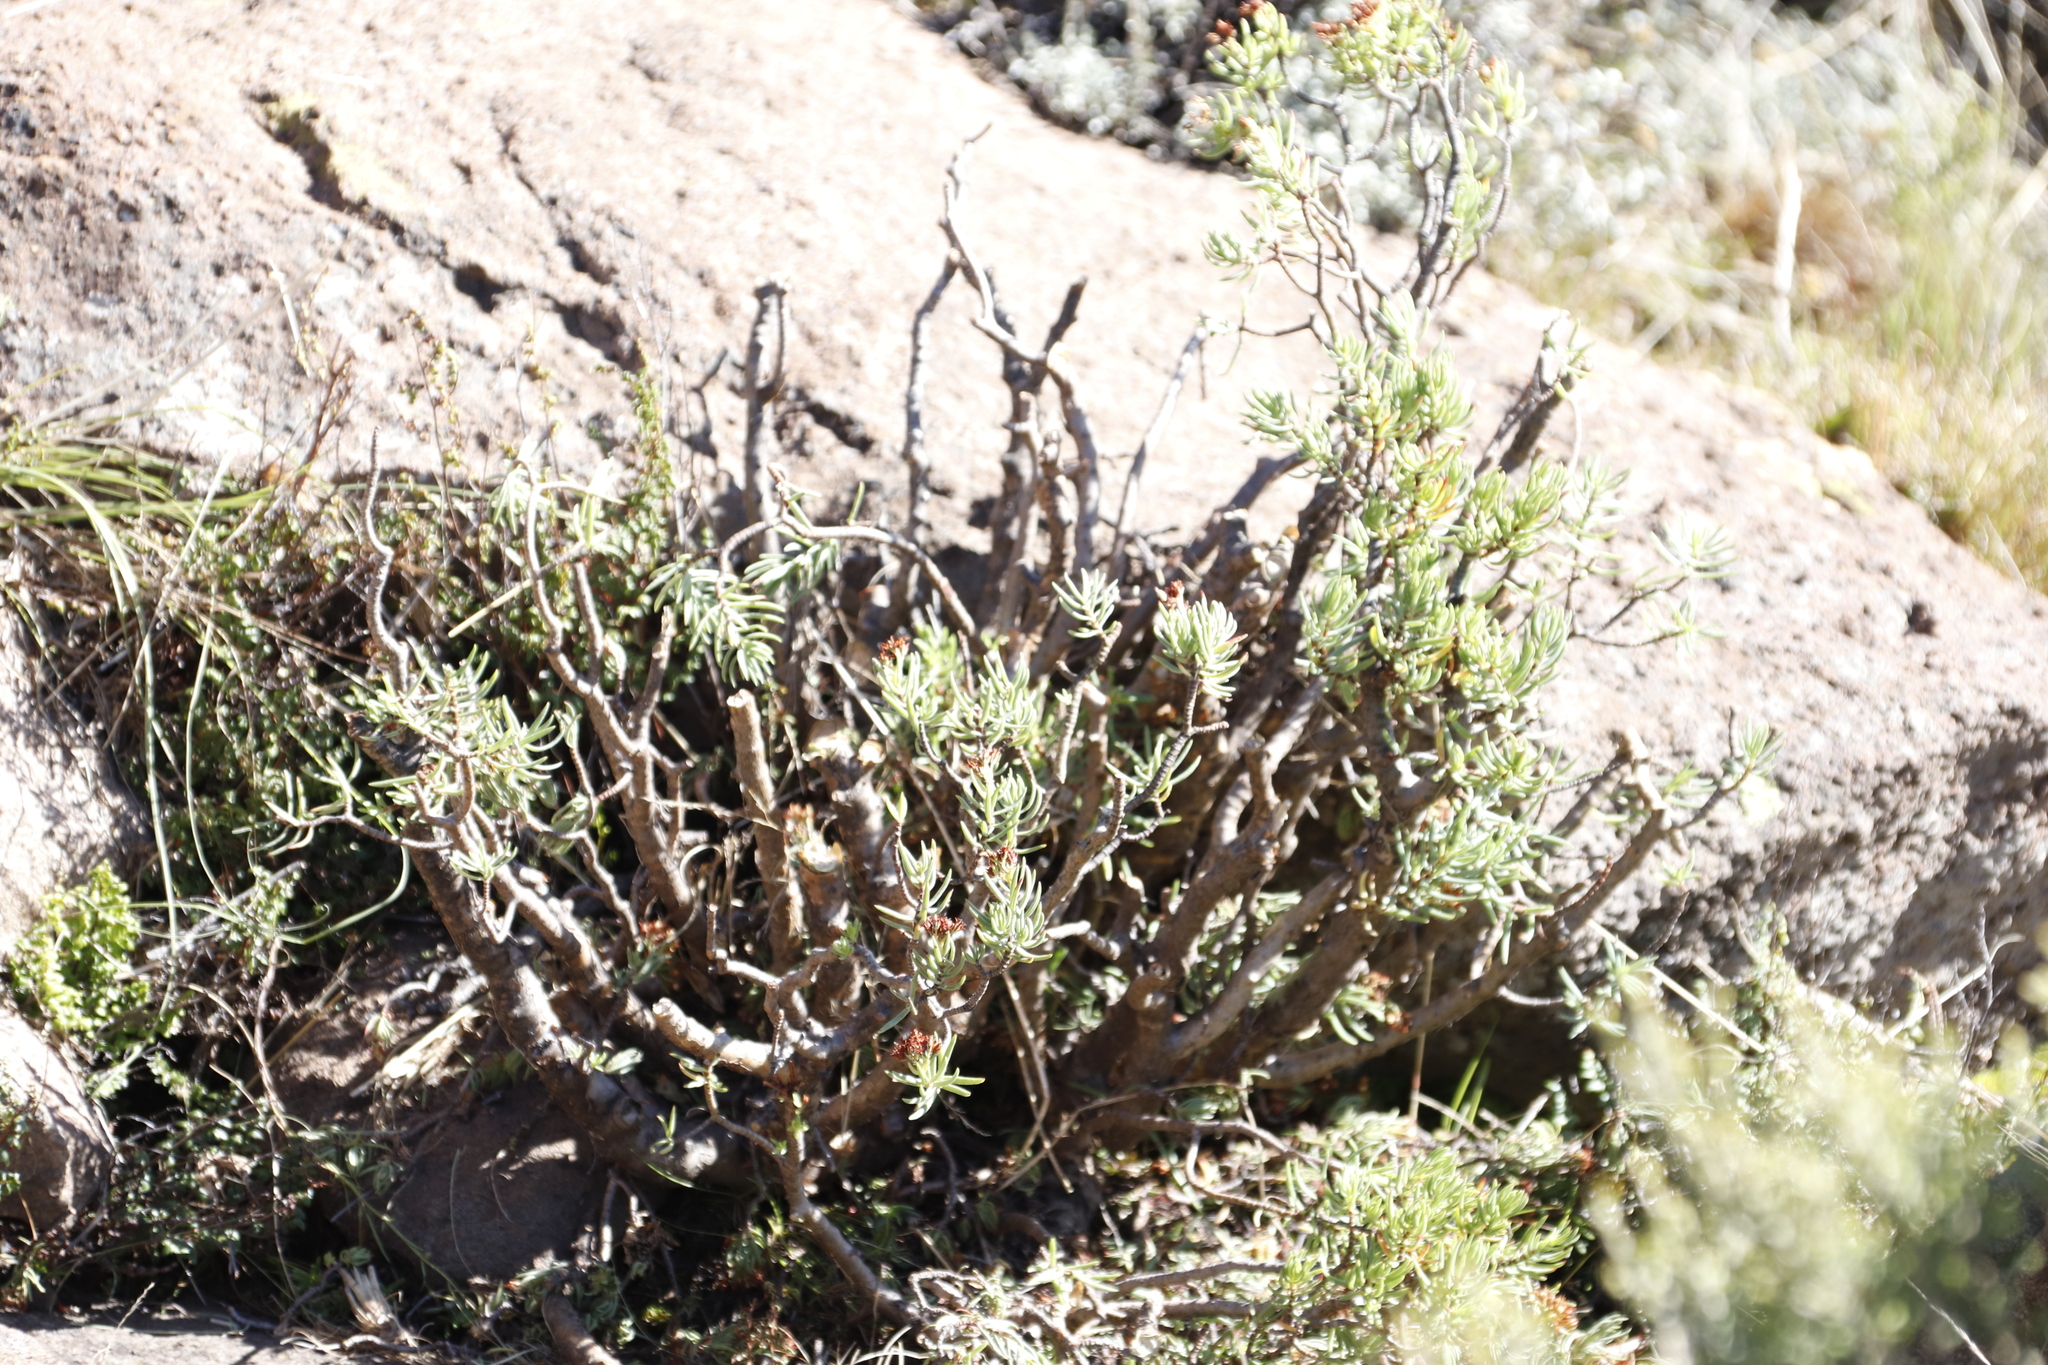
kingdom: Plantae
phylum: Tracheophyta
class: Magnoliopsida
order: Saxifragales
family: Crassulaceae
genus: Crassula
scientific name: Crassula sarcocaulis
